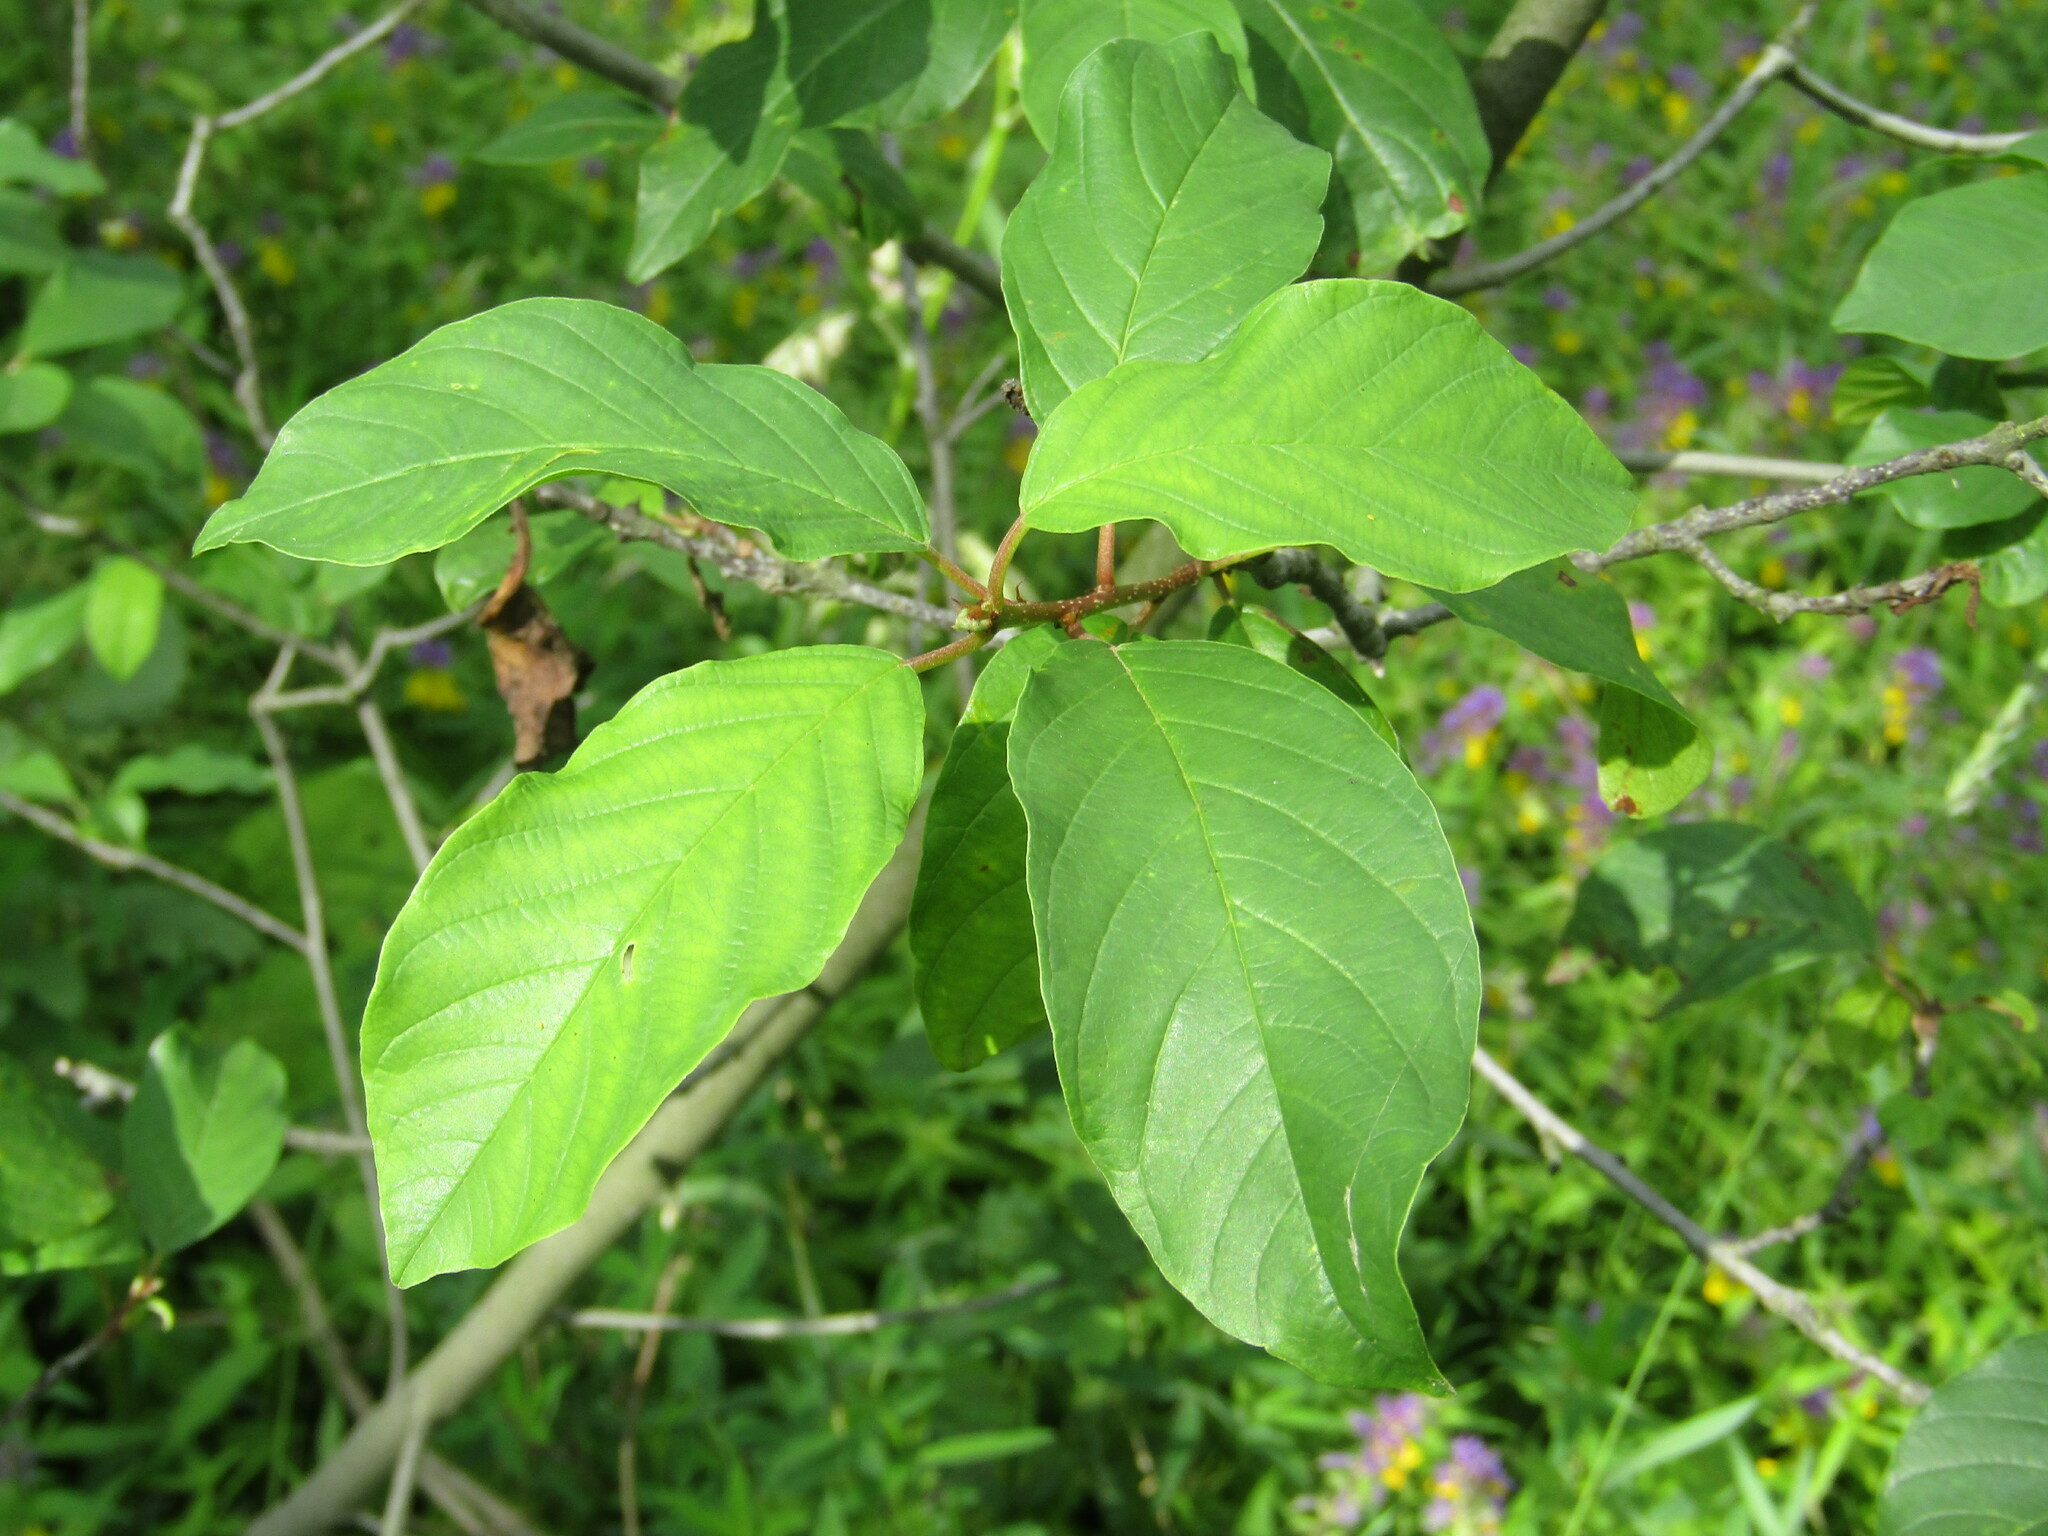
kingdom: Plantae
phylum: Tracheophyta
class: Magnoliopsida
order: Rosales
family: Rhamnaceae
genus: Frangula
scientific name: Frangula alnus
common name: Alder buckthorn
